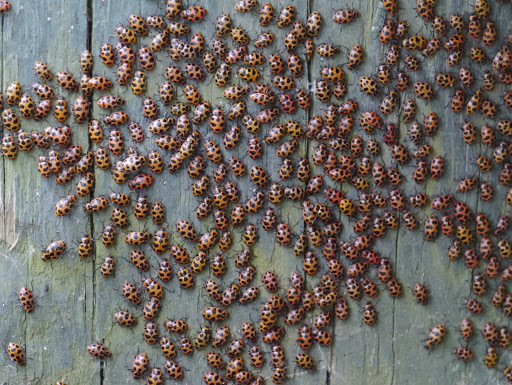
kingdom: Animalia
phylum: Arthropoda
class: Insecta
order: Coleoptera
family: Coccinellidae
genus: Coleomegilla
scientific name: Coleomegilla maculata
